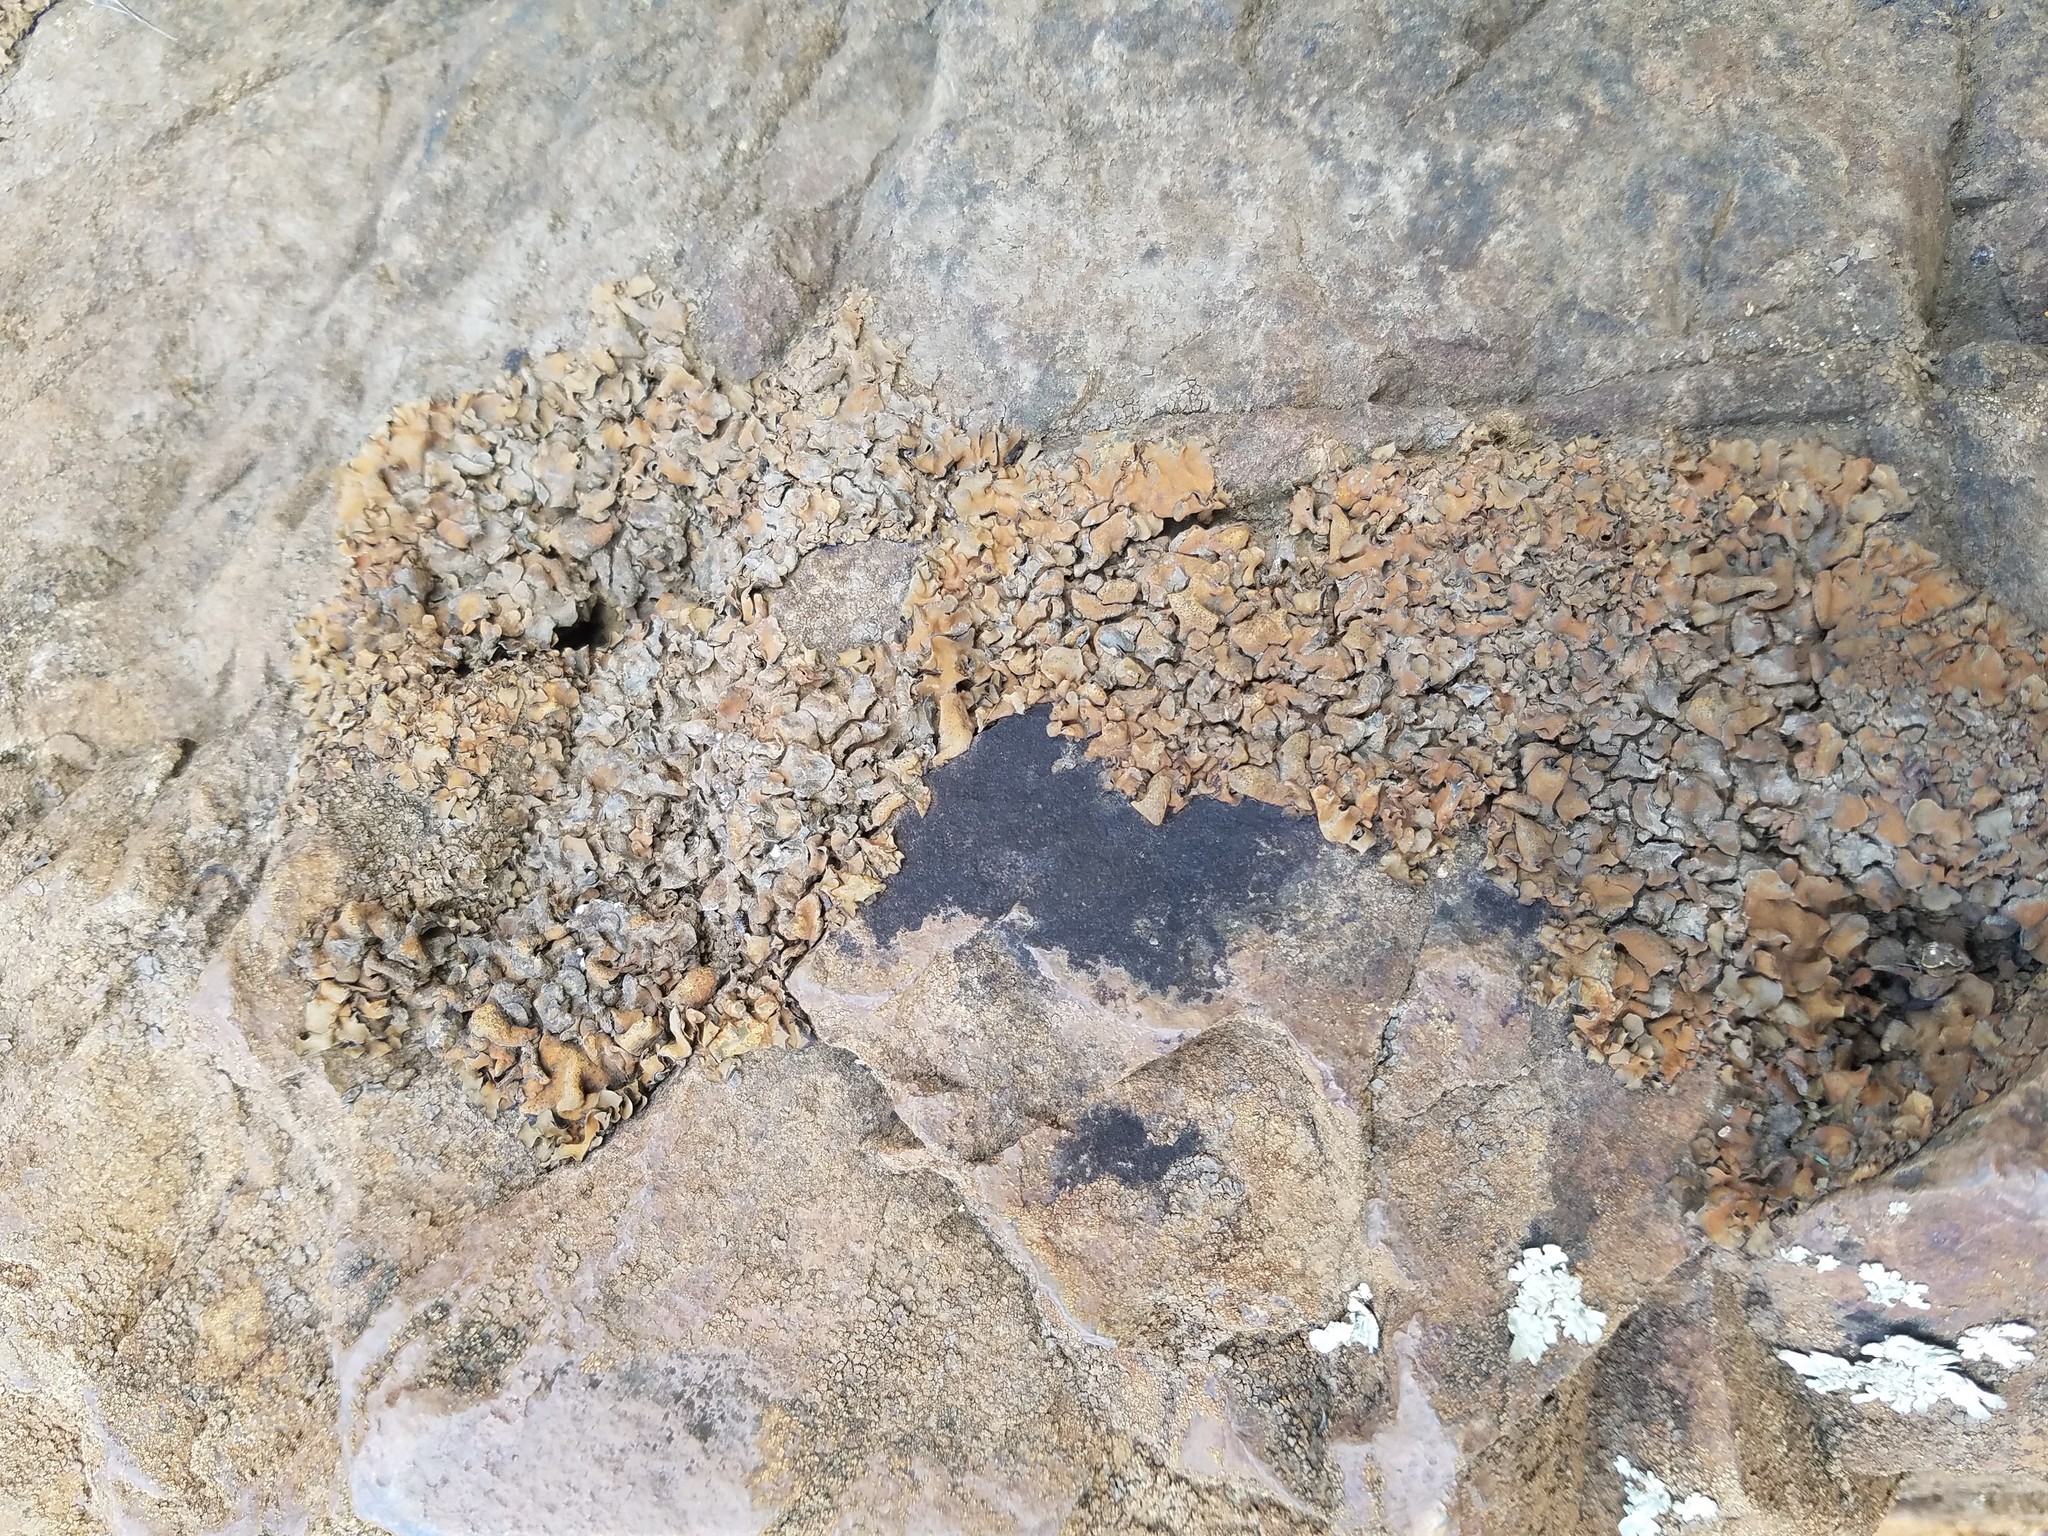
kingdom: Fungi
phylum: Ascomycota
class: Eurotiomycetes
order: Verrucariales
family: Verrucariaceae
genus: Dermatocarpon
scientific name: Dermatocarpon luridum
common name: Brook stippleback lichen
